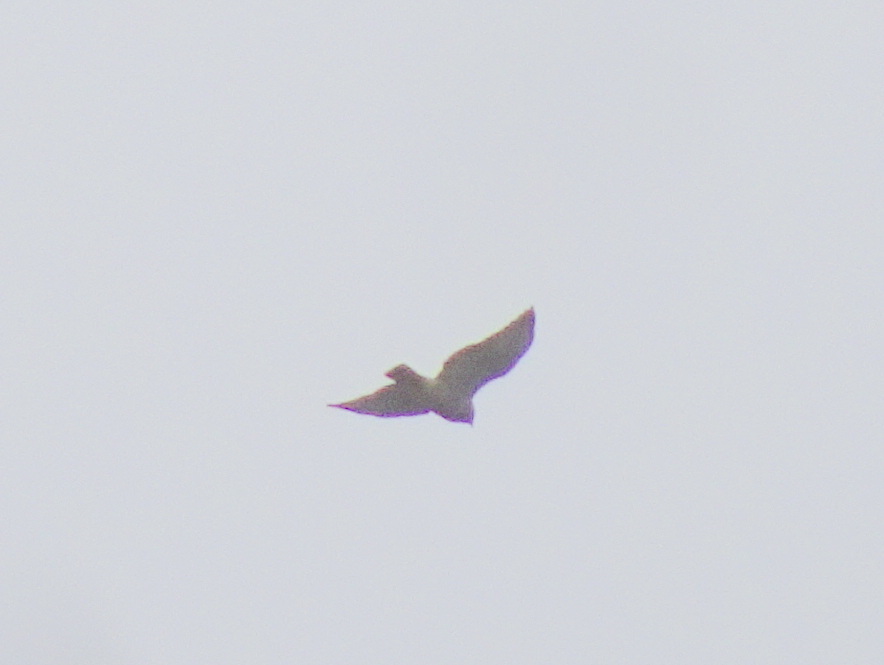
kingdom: Animalia
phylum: Chordata
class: Aves
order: Accipitriformes
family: Accipitridae
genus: Buteo
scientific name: Buteo platypterus
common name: Broad-winged hawk
